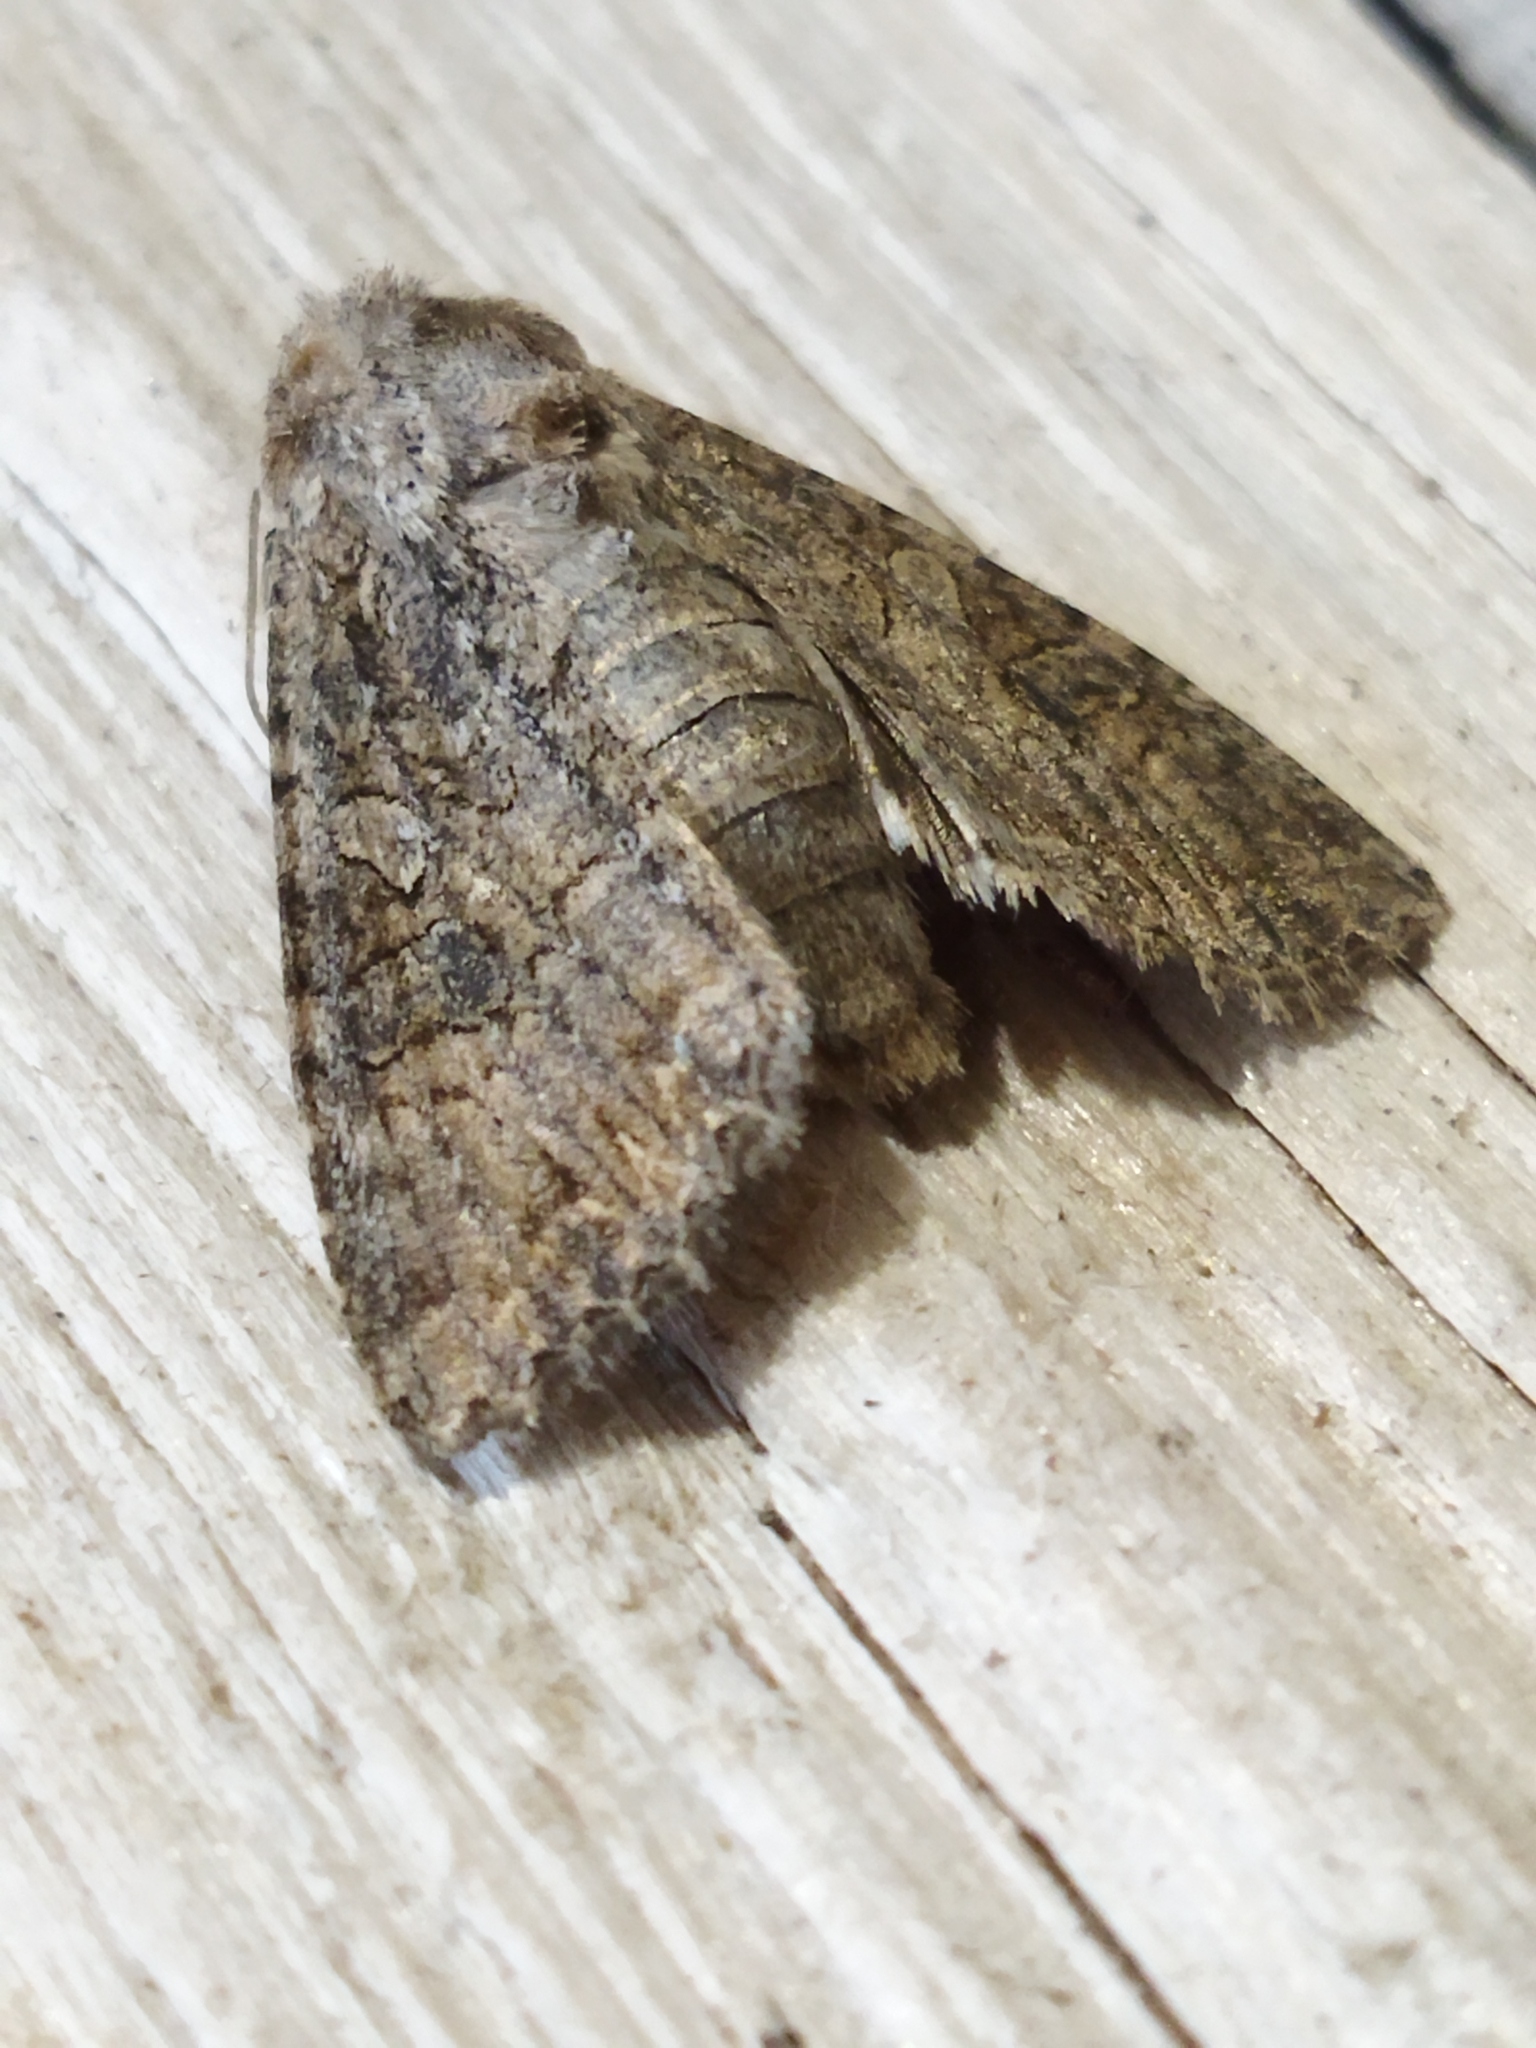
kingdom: Animalia
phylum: Arthropoda
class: Insecta
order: Lepidoptera
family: Noctuidae
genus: Anarta
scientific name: Anarta trifolii
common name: Clover cutworm moth
